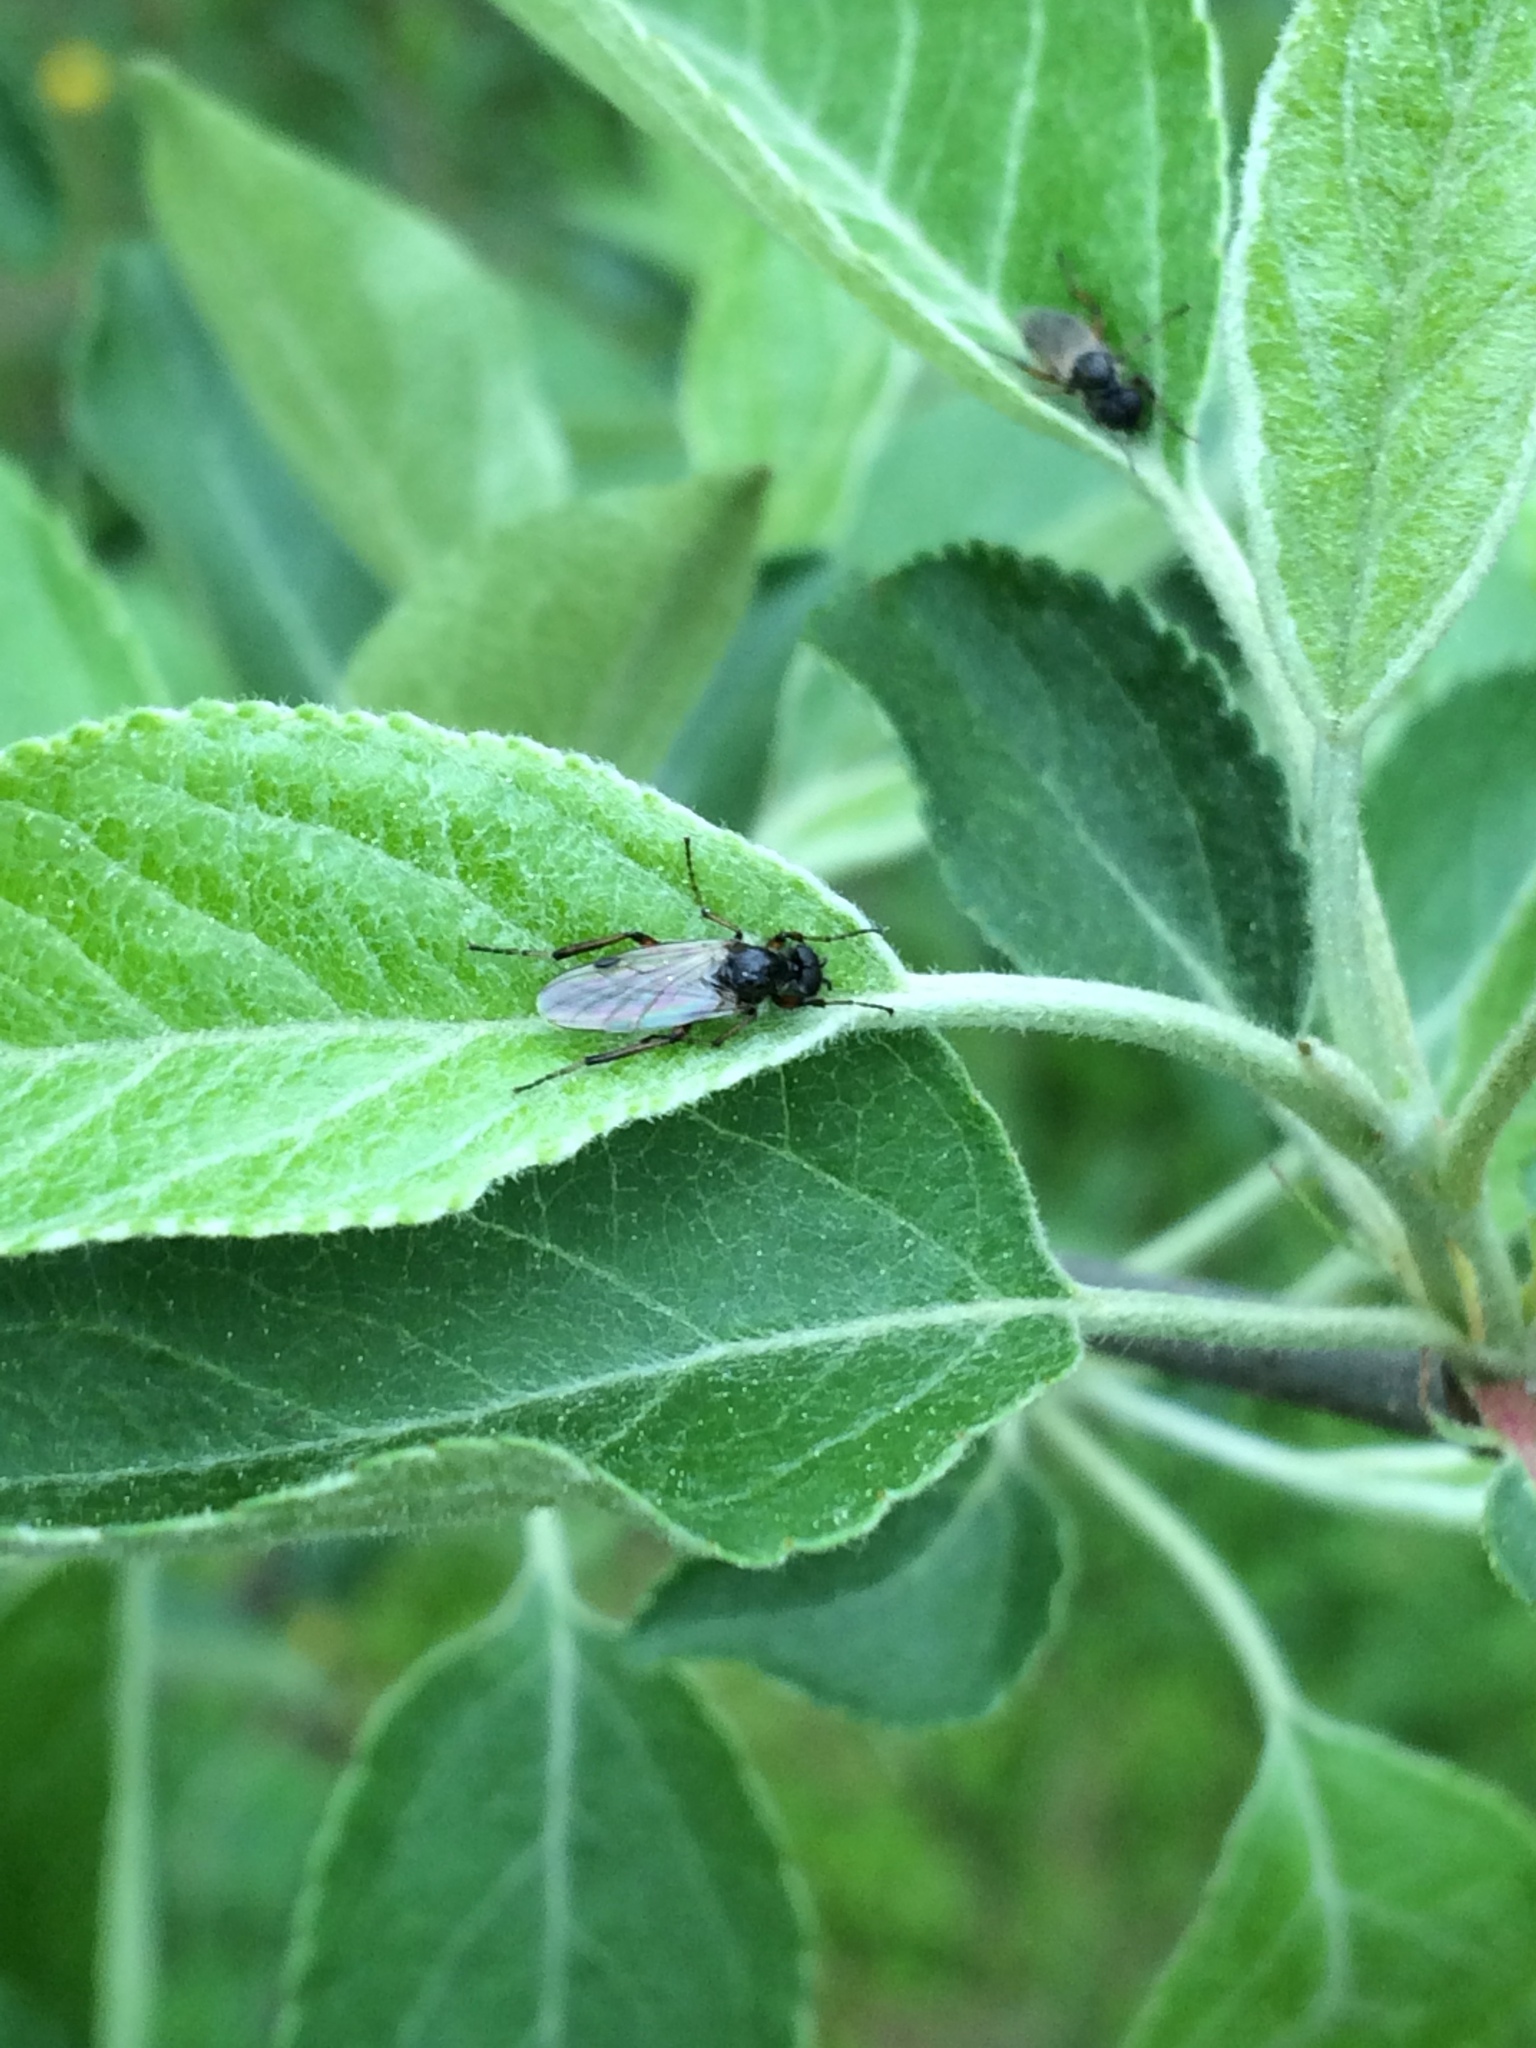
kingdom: Animalia
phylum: Arthropoda
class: Insecta
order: Diptera
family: Bibionidae
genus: Bibio
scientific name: Bibio
